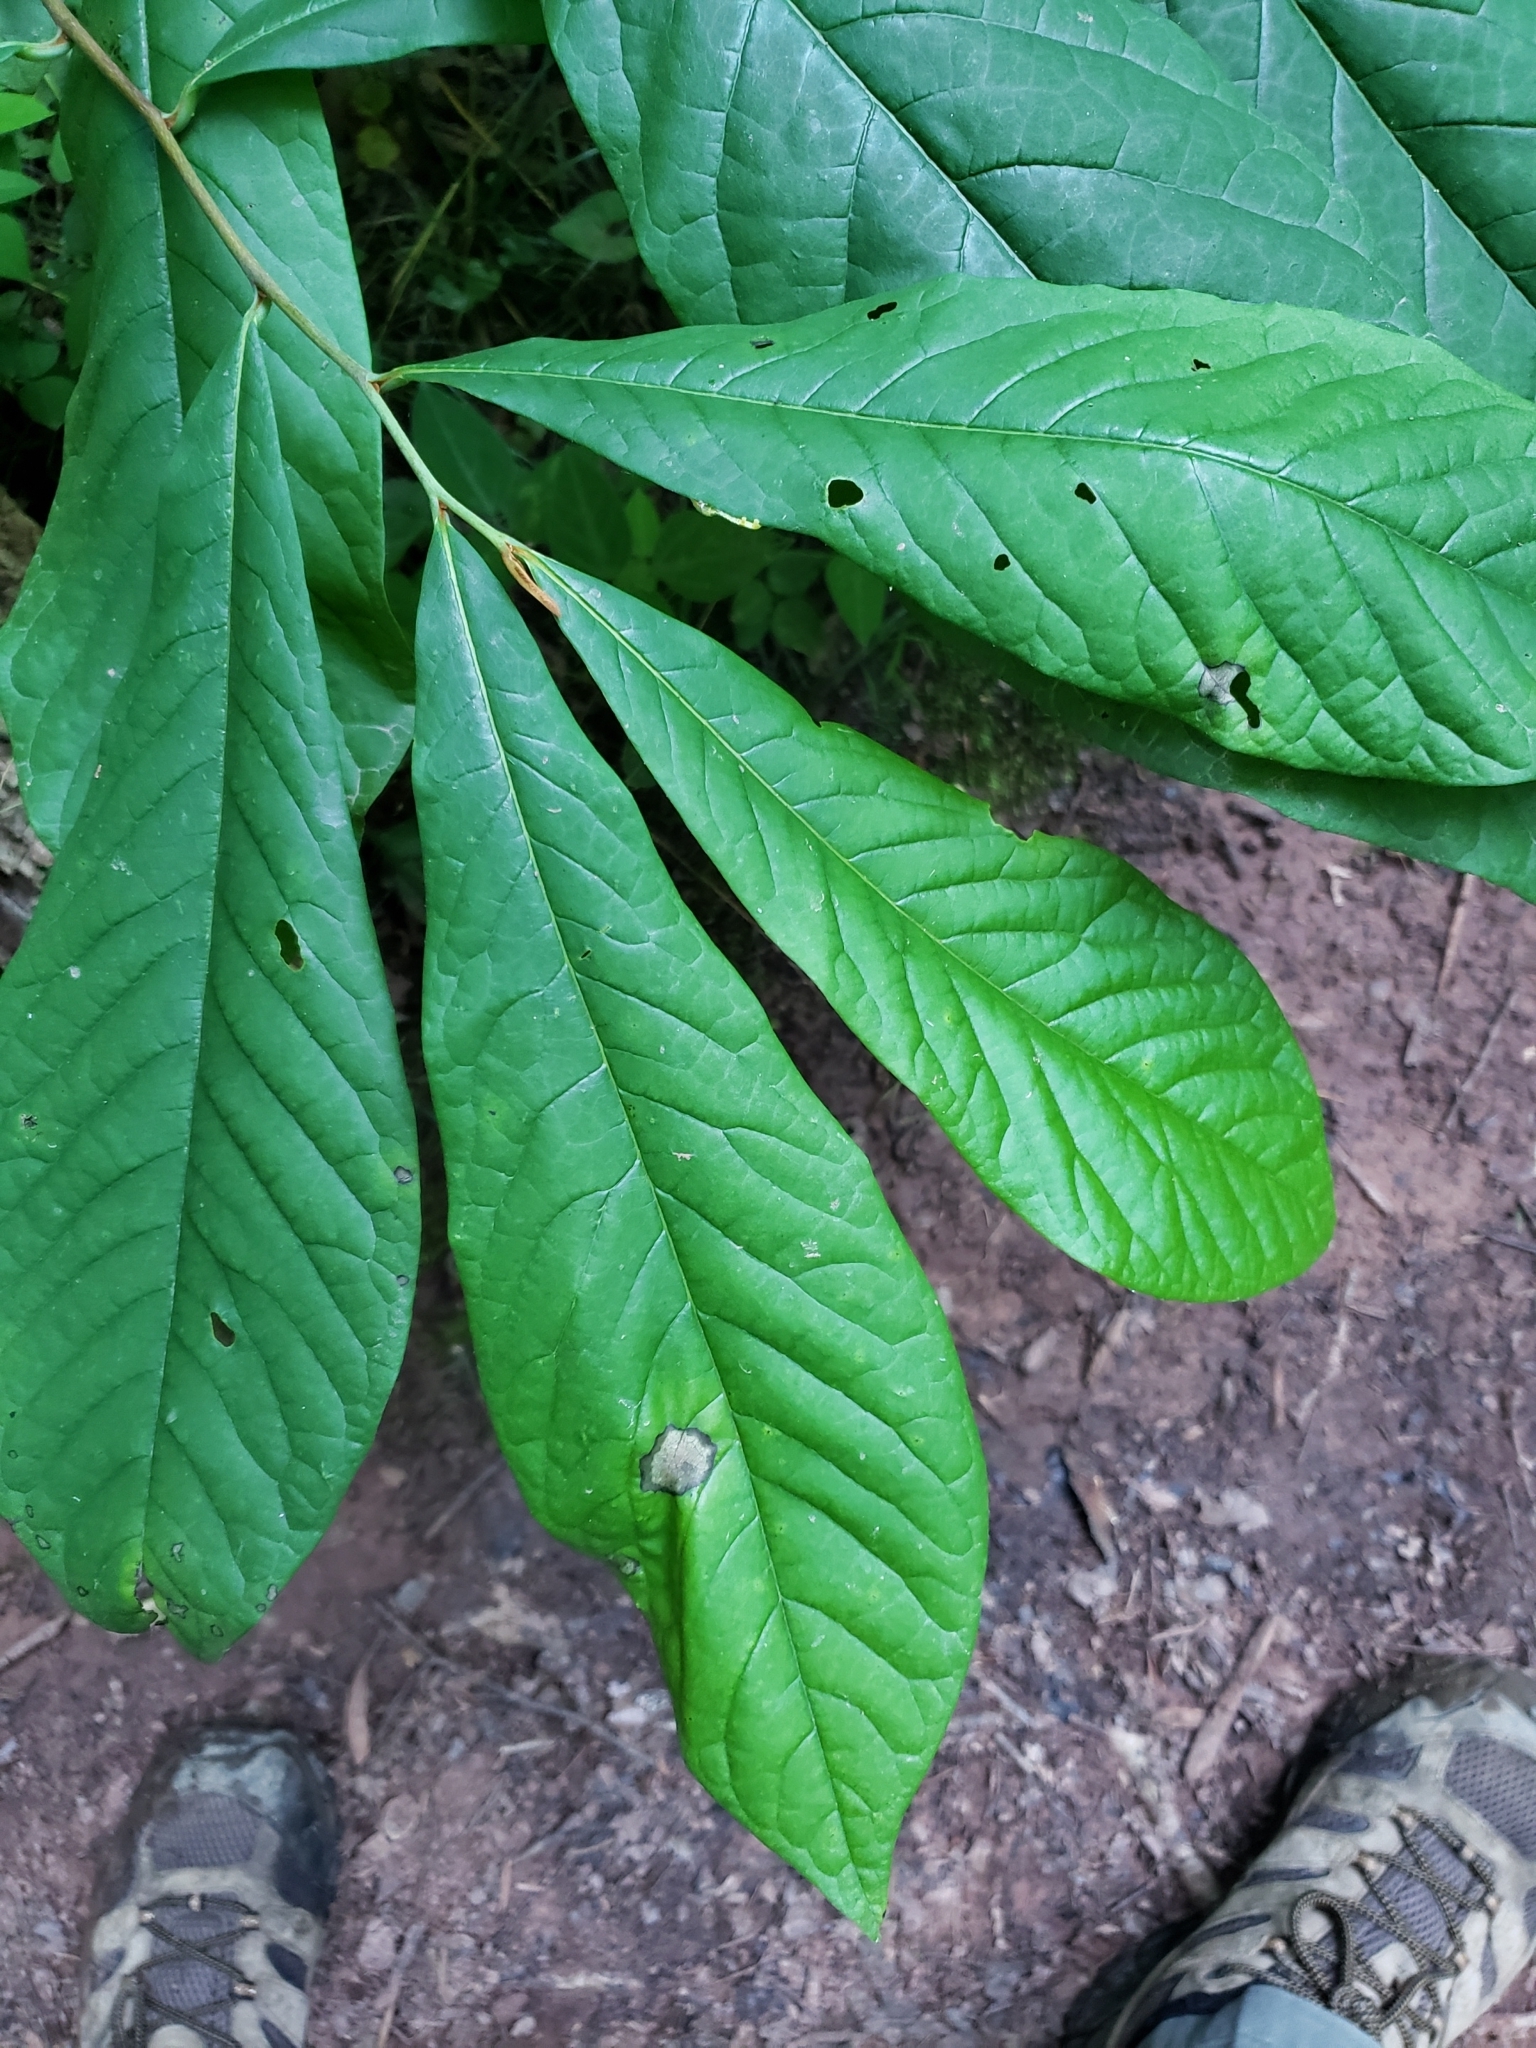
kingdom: Animalia
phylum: Arthropoda
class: Insecta
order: Lepidoptera
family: Geometridae
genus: Epimecis
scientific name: Epimecis hortaria
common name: Tulip-tree beauty
